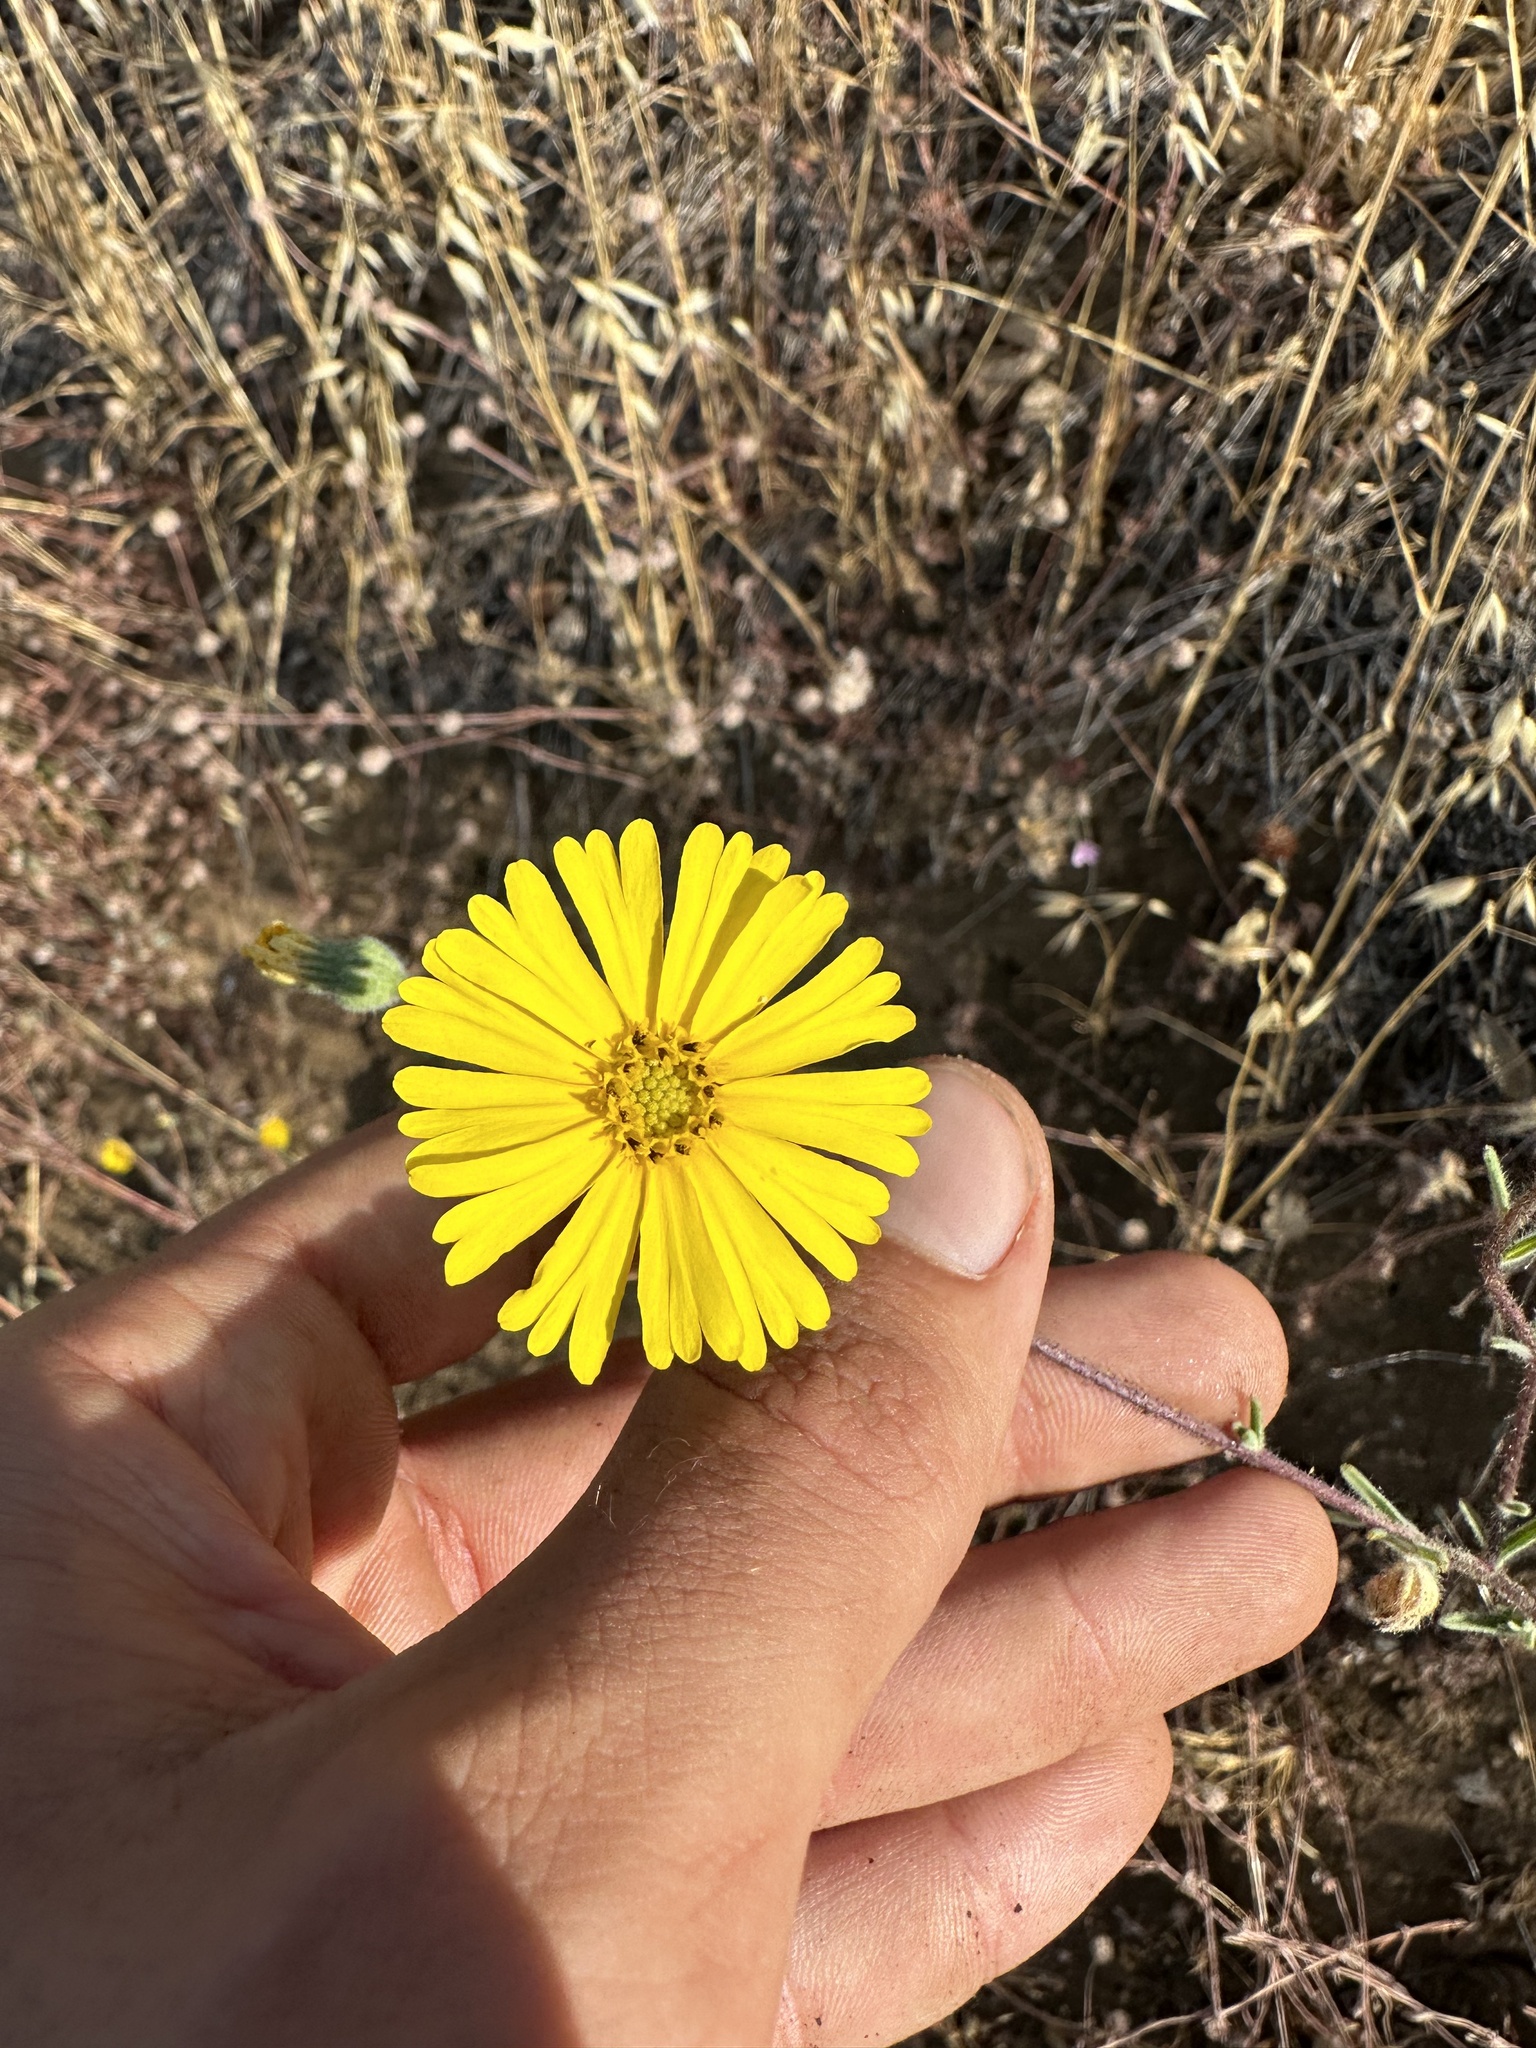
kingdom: Plantae
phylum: Tracheophyta
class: Magnoliopsida
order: Asterales
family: Asteraceae
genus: Madia
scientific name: Madia elegans
